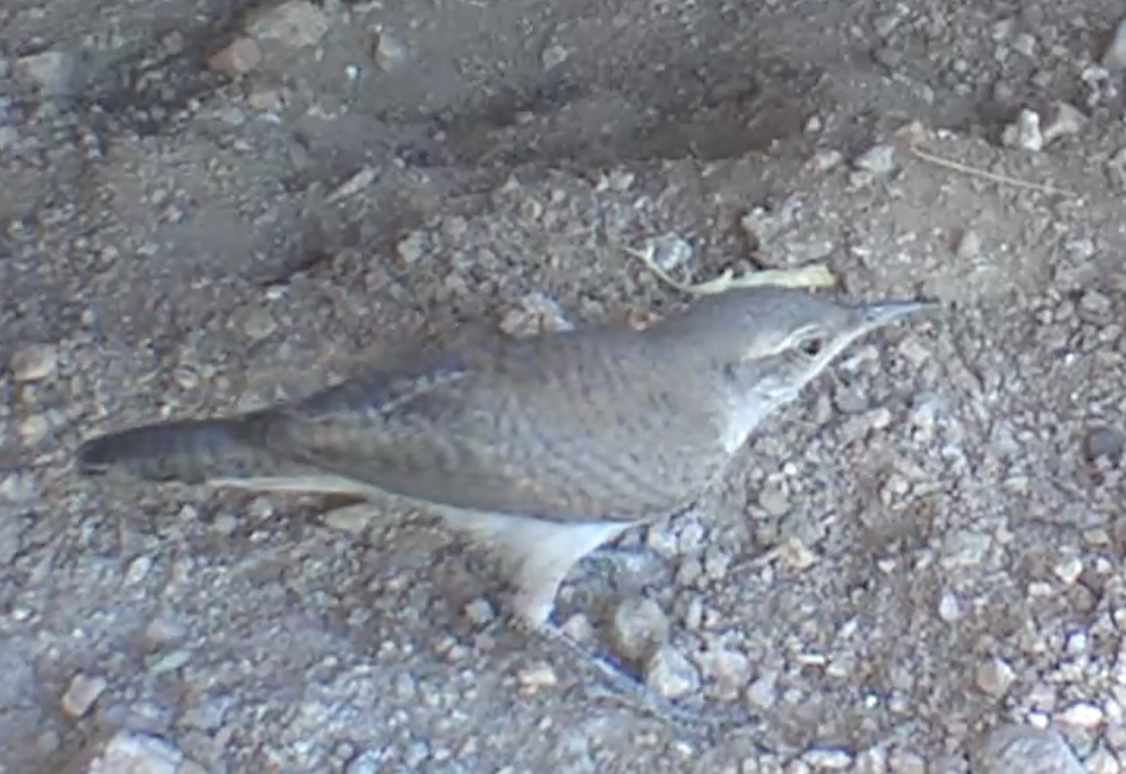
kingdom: Animalia
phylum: Chordata
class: Aves
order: Passeriformes
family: Troglodytidae
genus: Salpinctes
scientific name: Salpinctes obsoletus
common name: Rock wren
